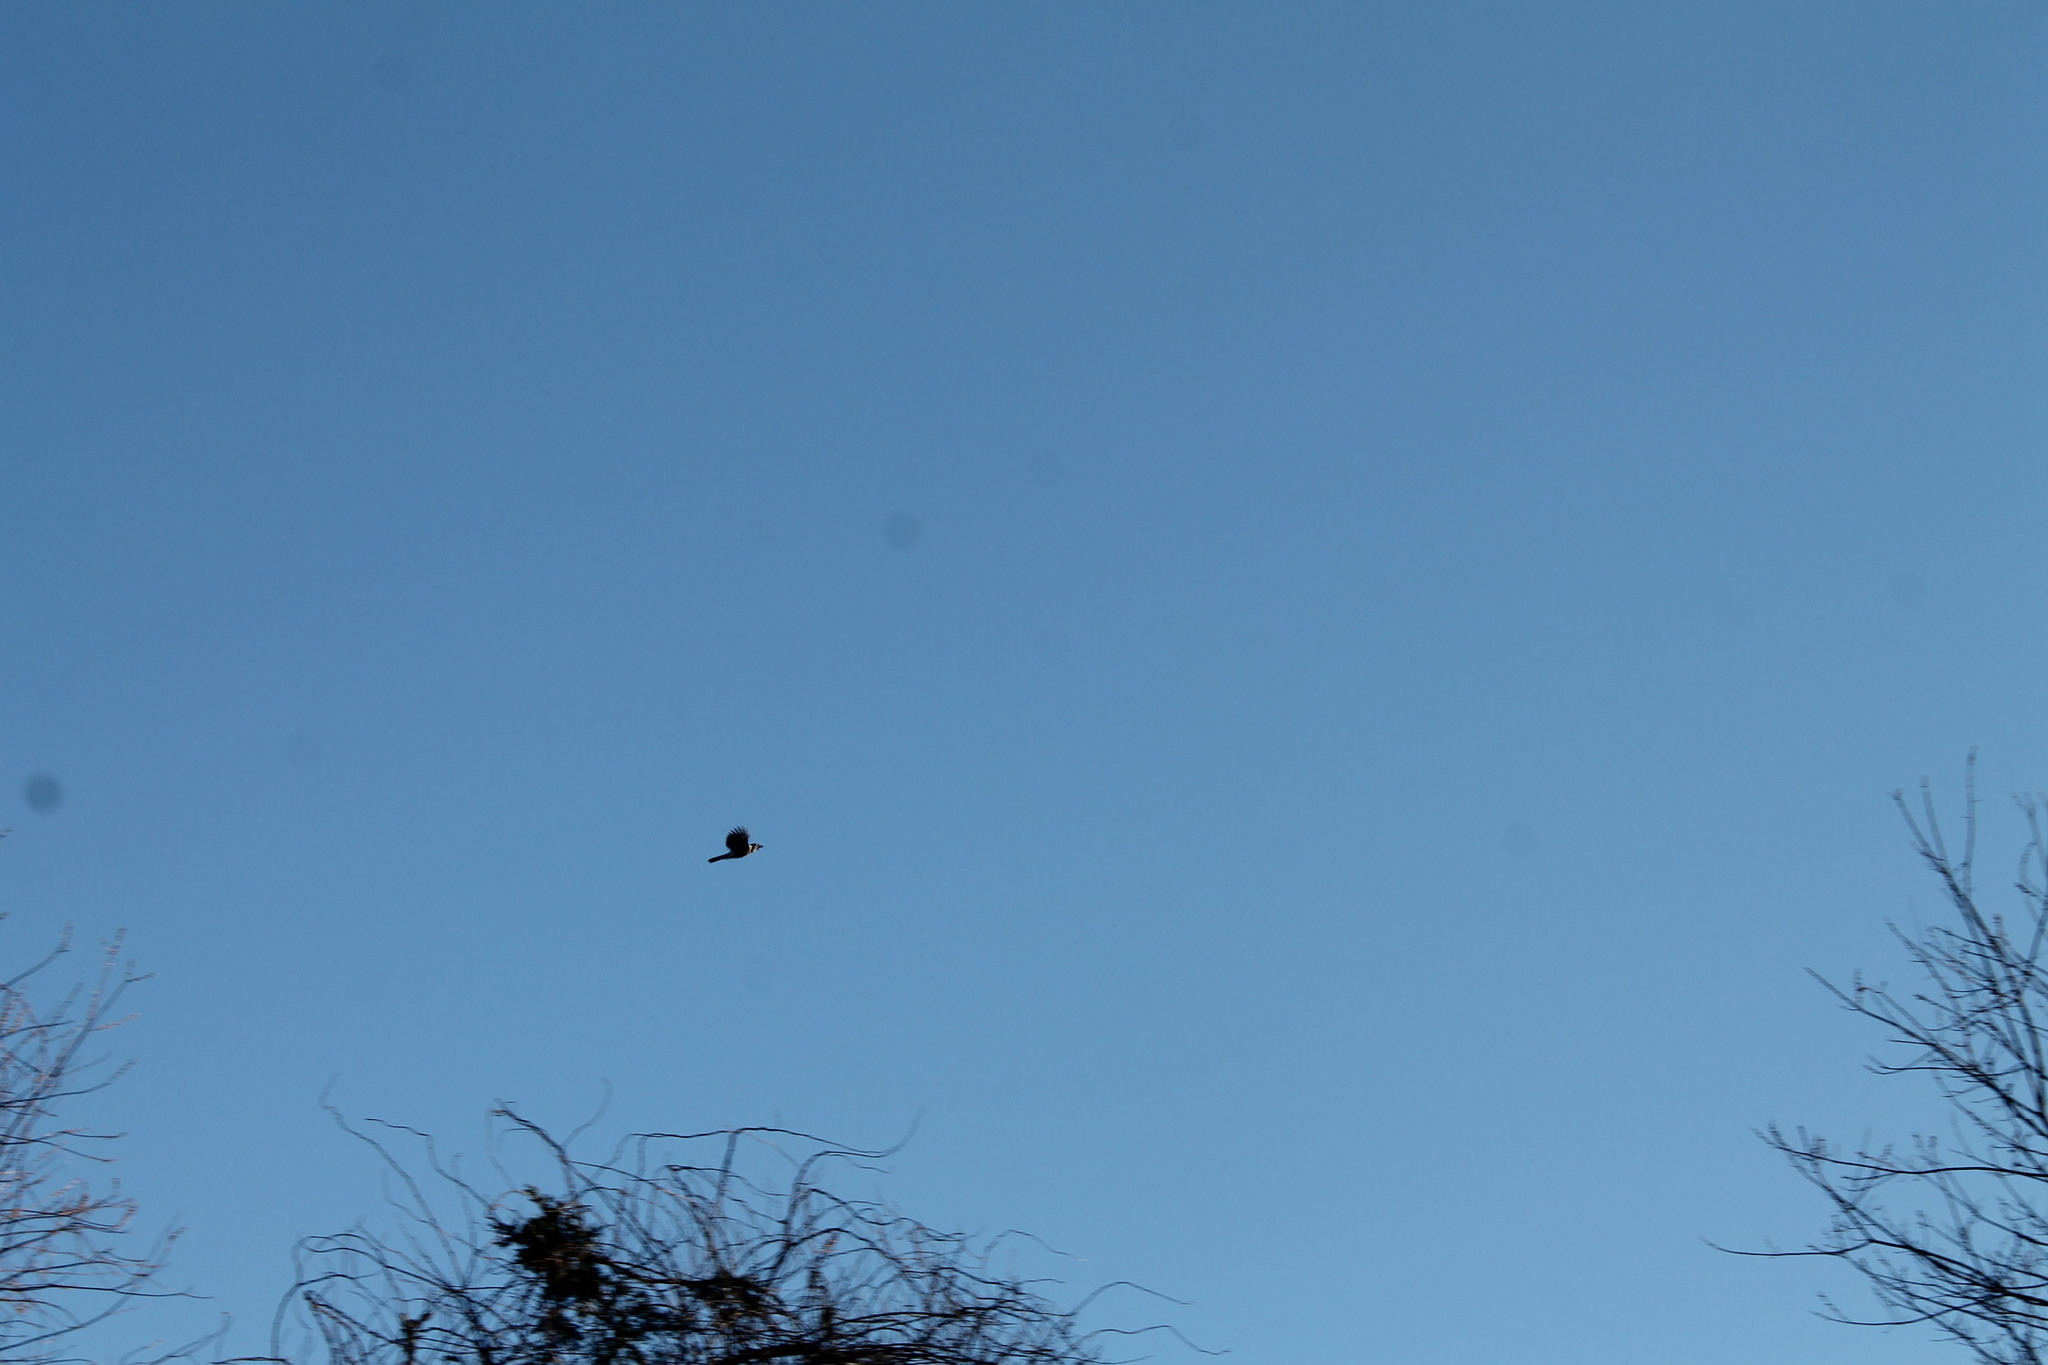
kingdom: Animalia
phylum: Chordata
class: Aves
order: Passeriformes
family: Corvidae
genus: Cyanocitta
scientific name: Cyanocitta cristata
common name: Blue jay
